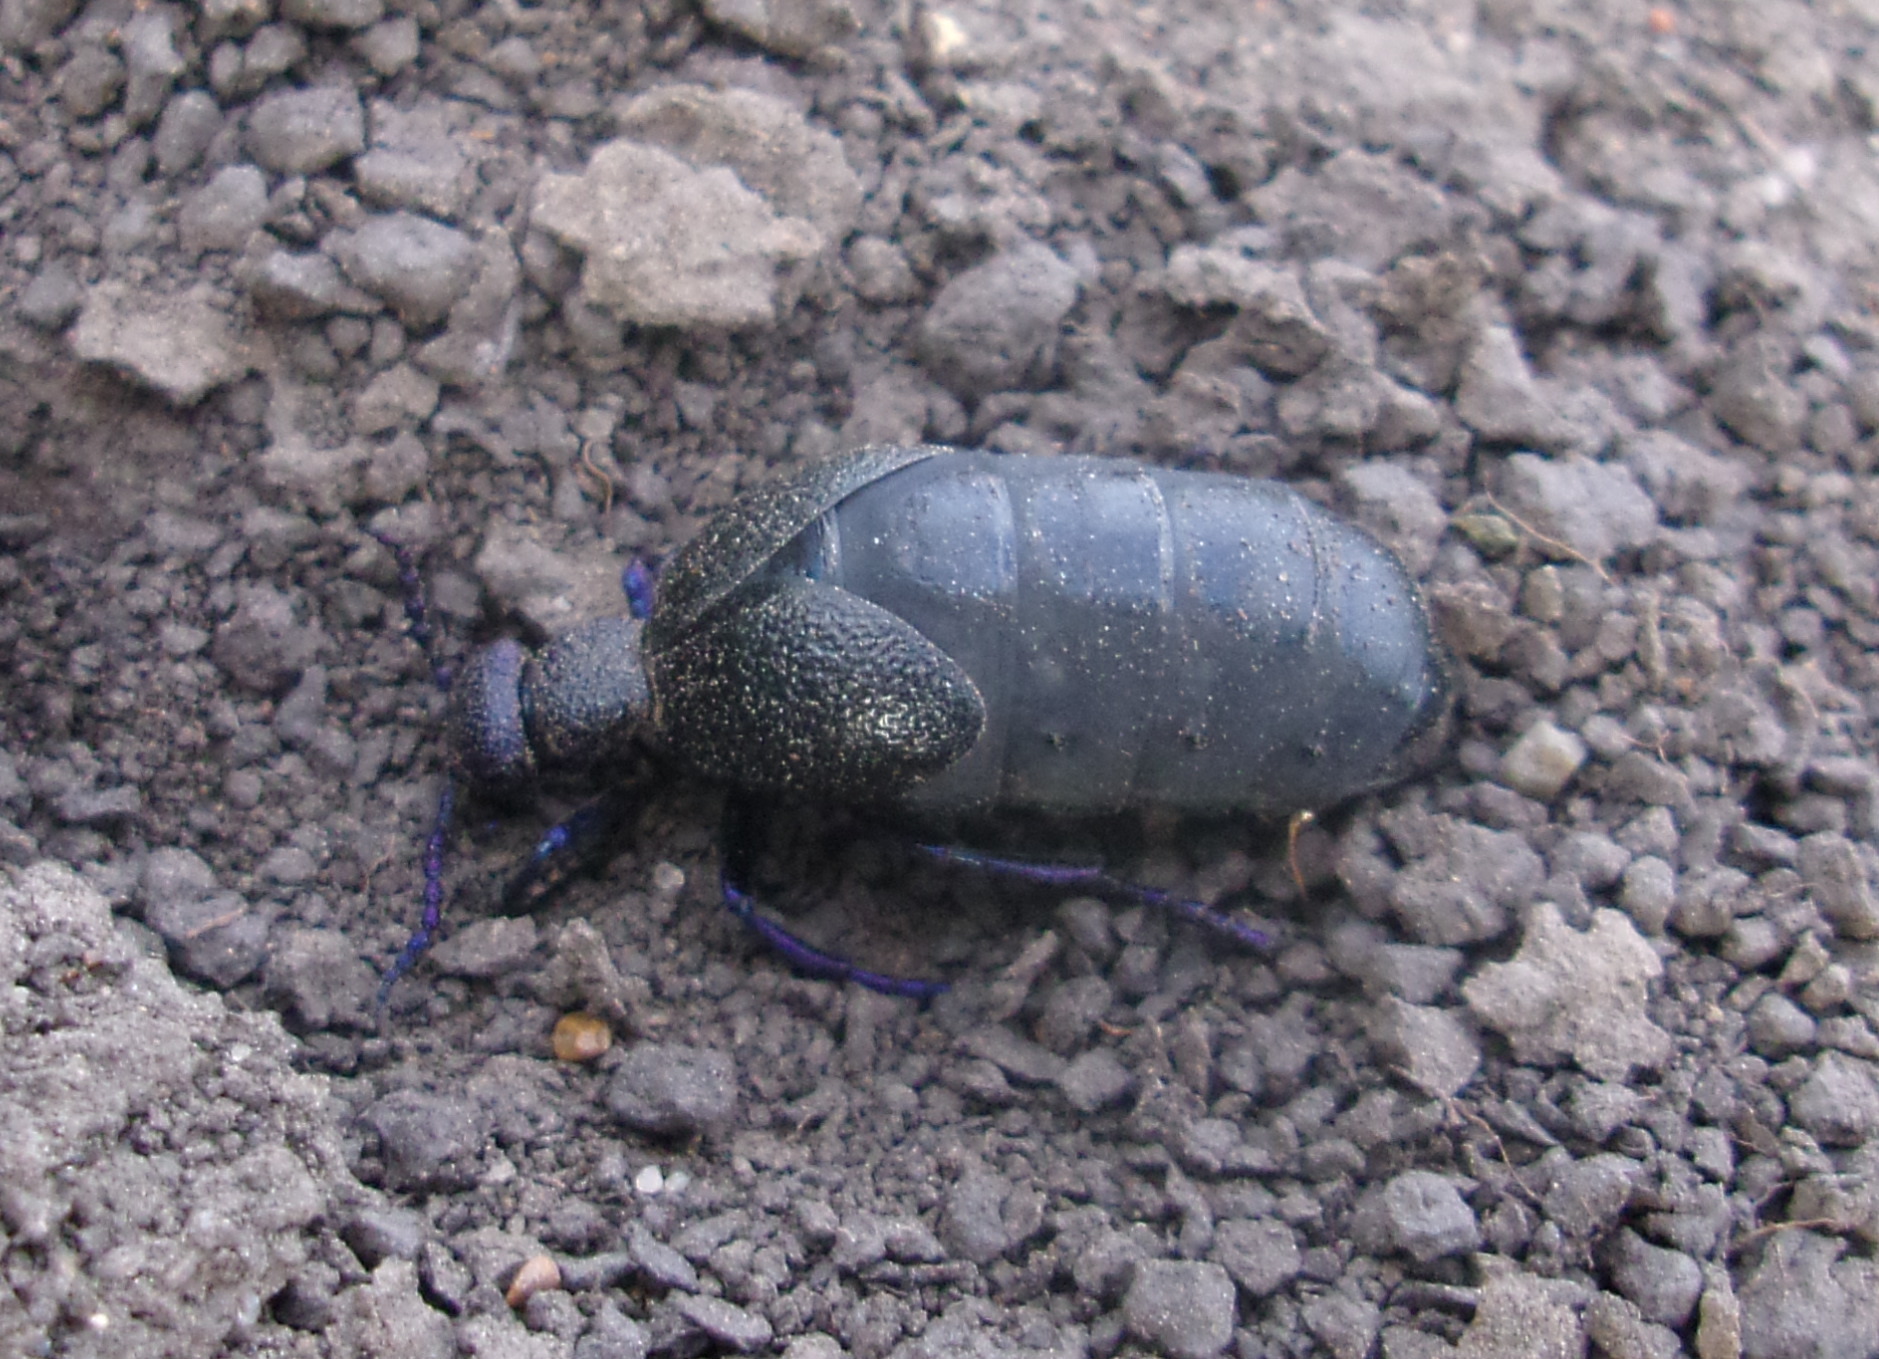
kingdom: Animalia
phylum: Arthropoda
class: Insecta
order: Coleoptera
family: Meloidae
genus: Meloe
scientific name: Meloe proscarabaeus
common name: Black oil-beetle
